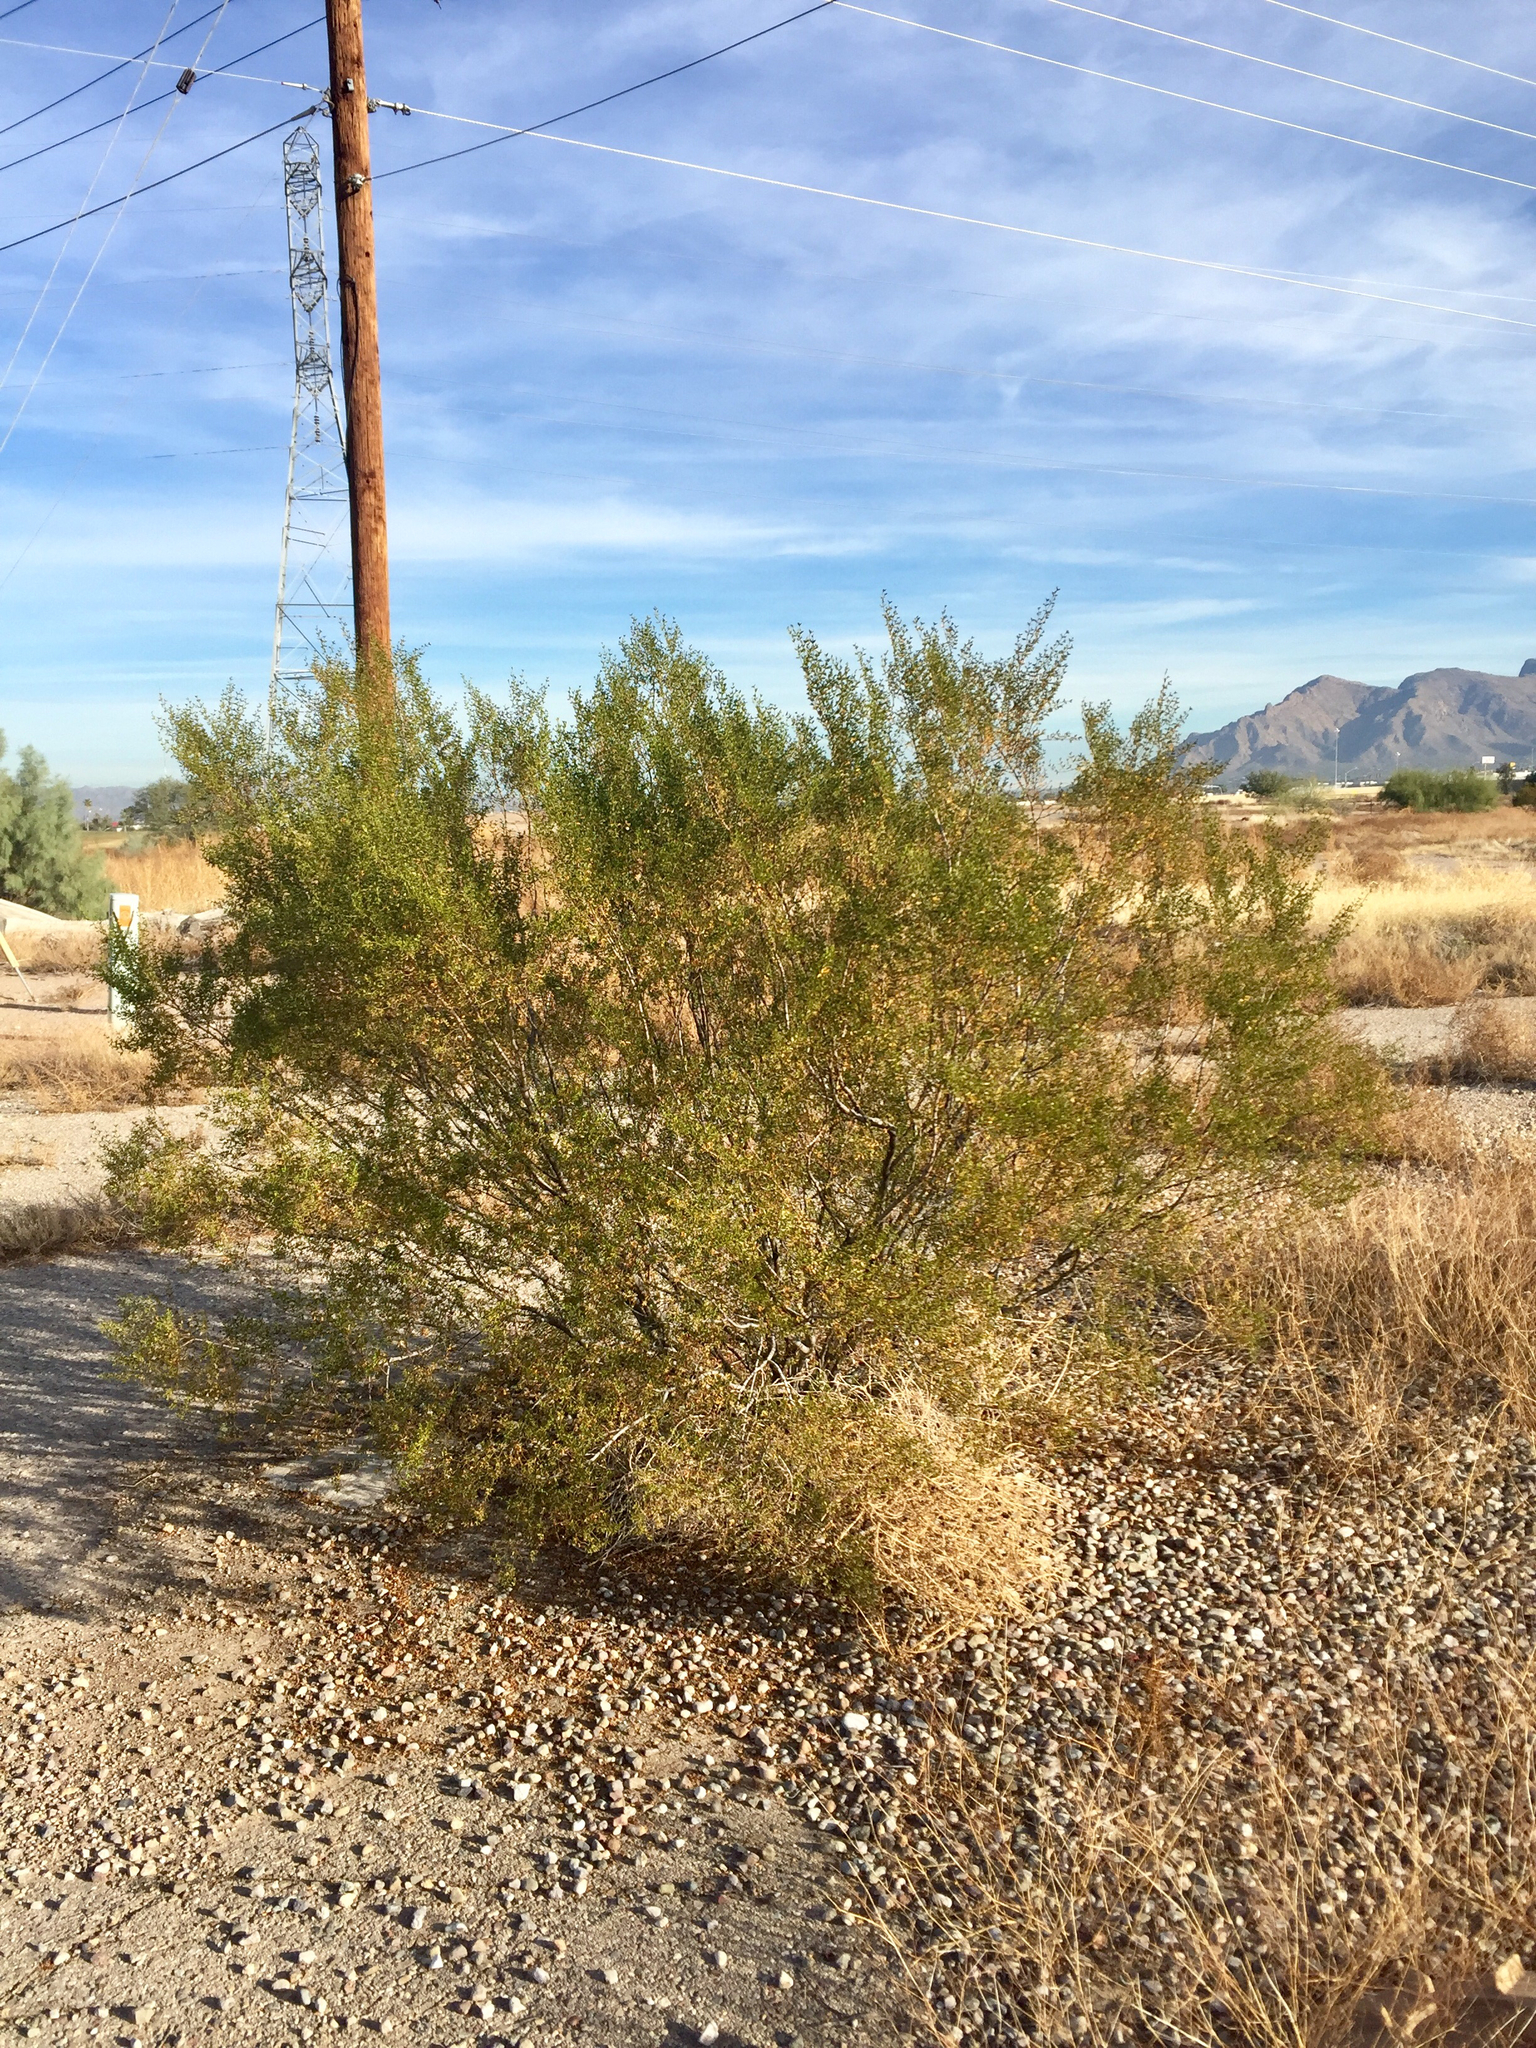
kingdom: Plantae
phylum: Tracheophyta
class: Magnoliopsida
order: Zygophyllales
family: Zygophyllaceae
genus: Larrea
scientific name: Larrea tridentata
